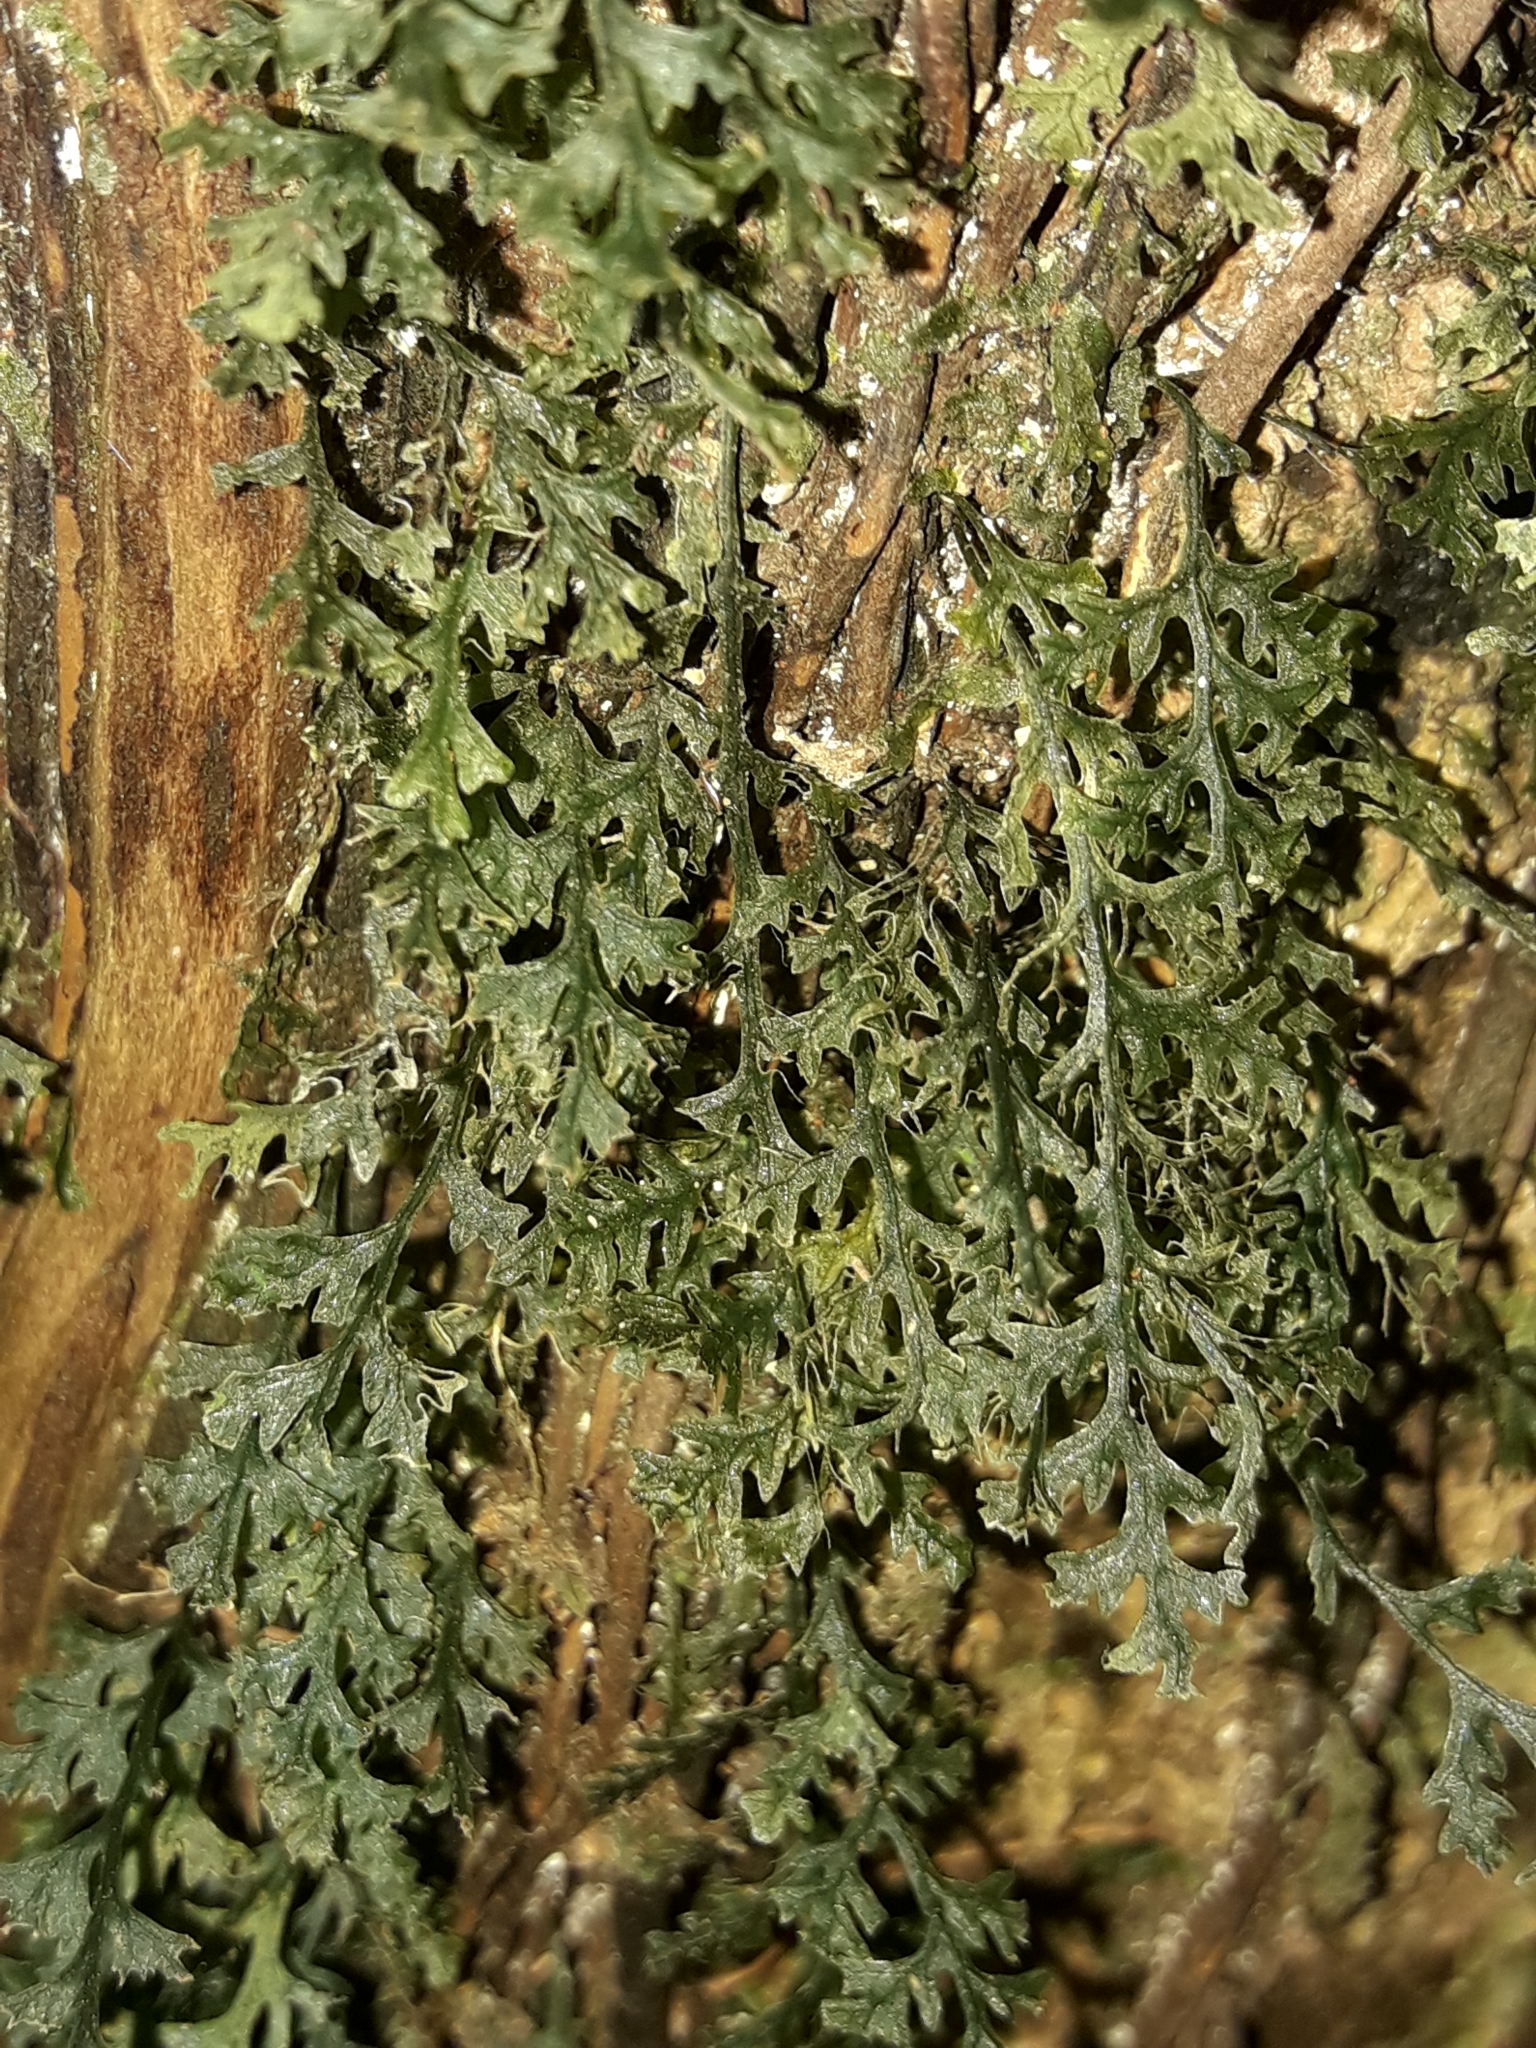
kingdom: Plantae
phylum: Tracheophyta
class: Polypodiopsida
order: Hymenophyllales
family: Hymenophyllaceae
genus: Polyphlebium
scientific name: Polyphlebium vieillardii
